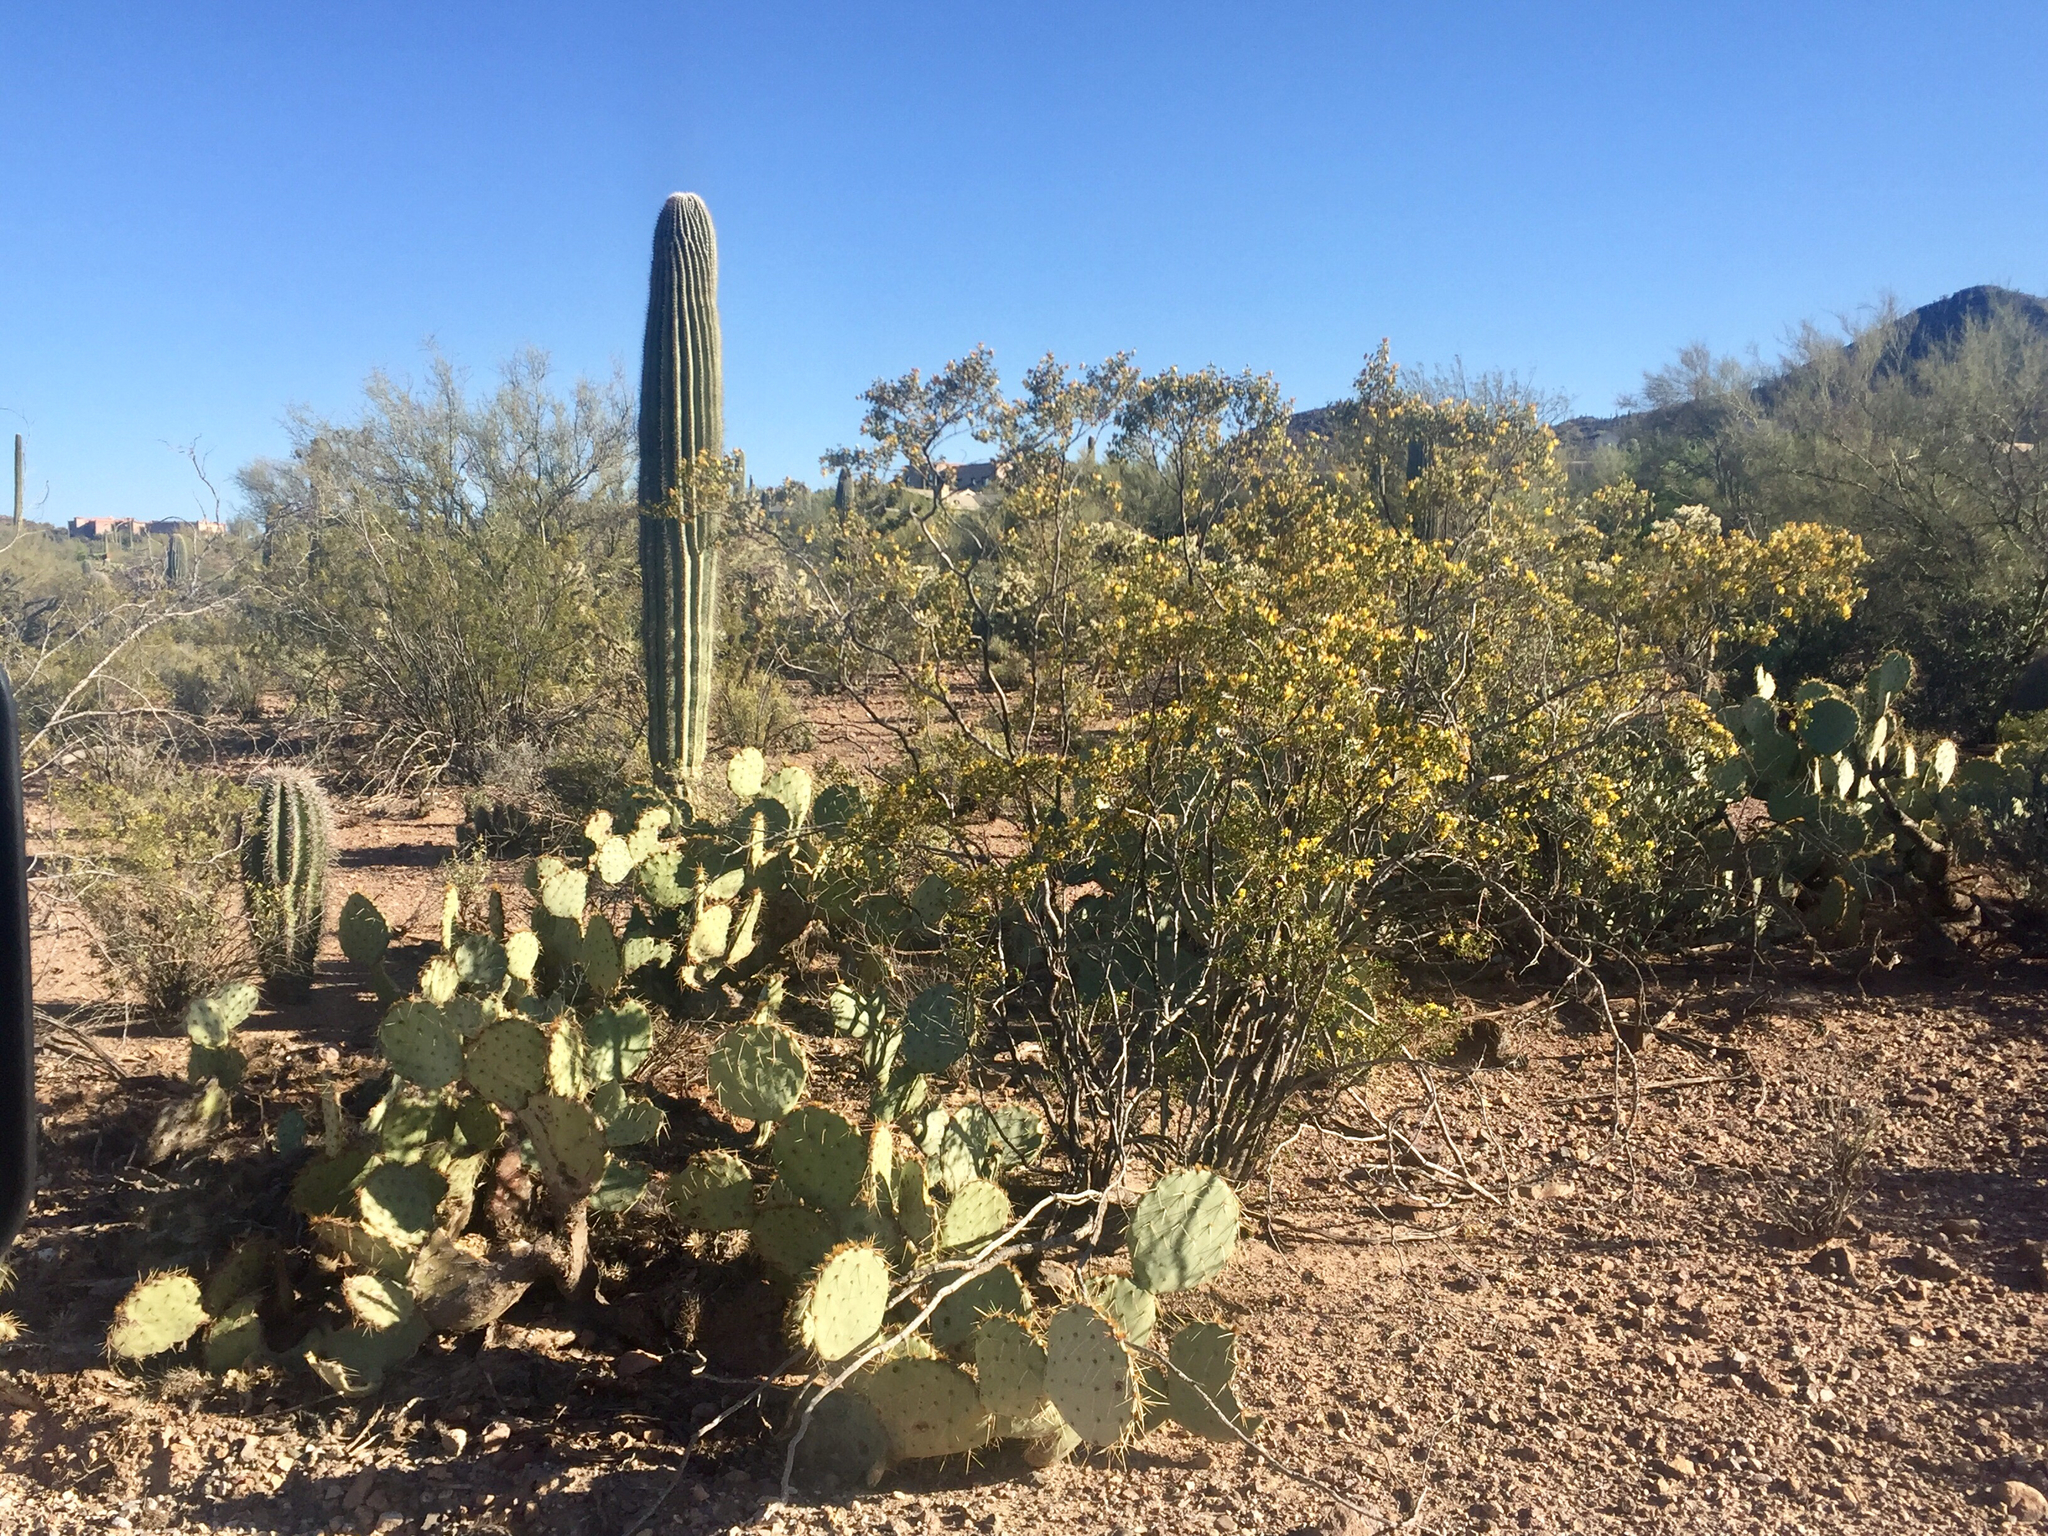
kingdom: Plantae
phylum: Tracheophyta
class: Magnoliopsida
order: Caryophyllales
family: Cactaceae
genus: Opuntia
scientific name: Opuntia engelmannii
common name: Cactus-apple
